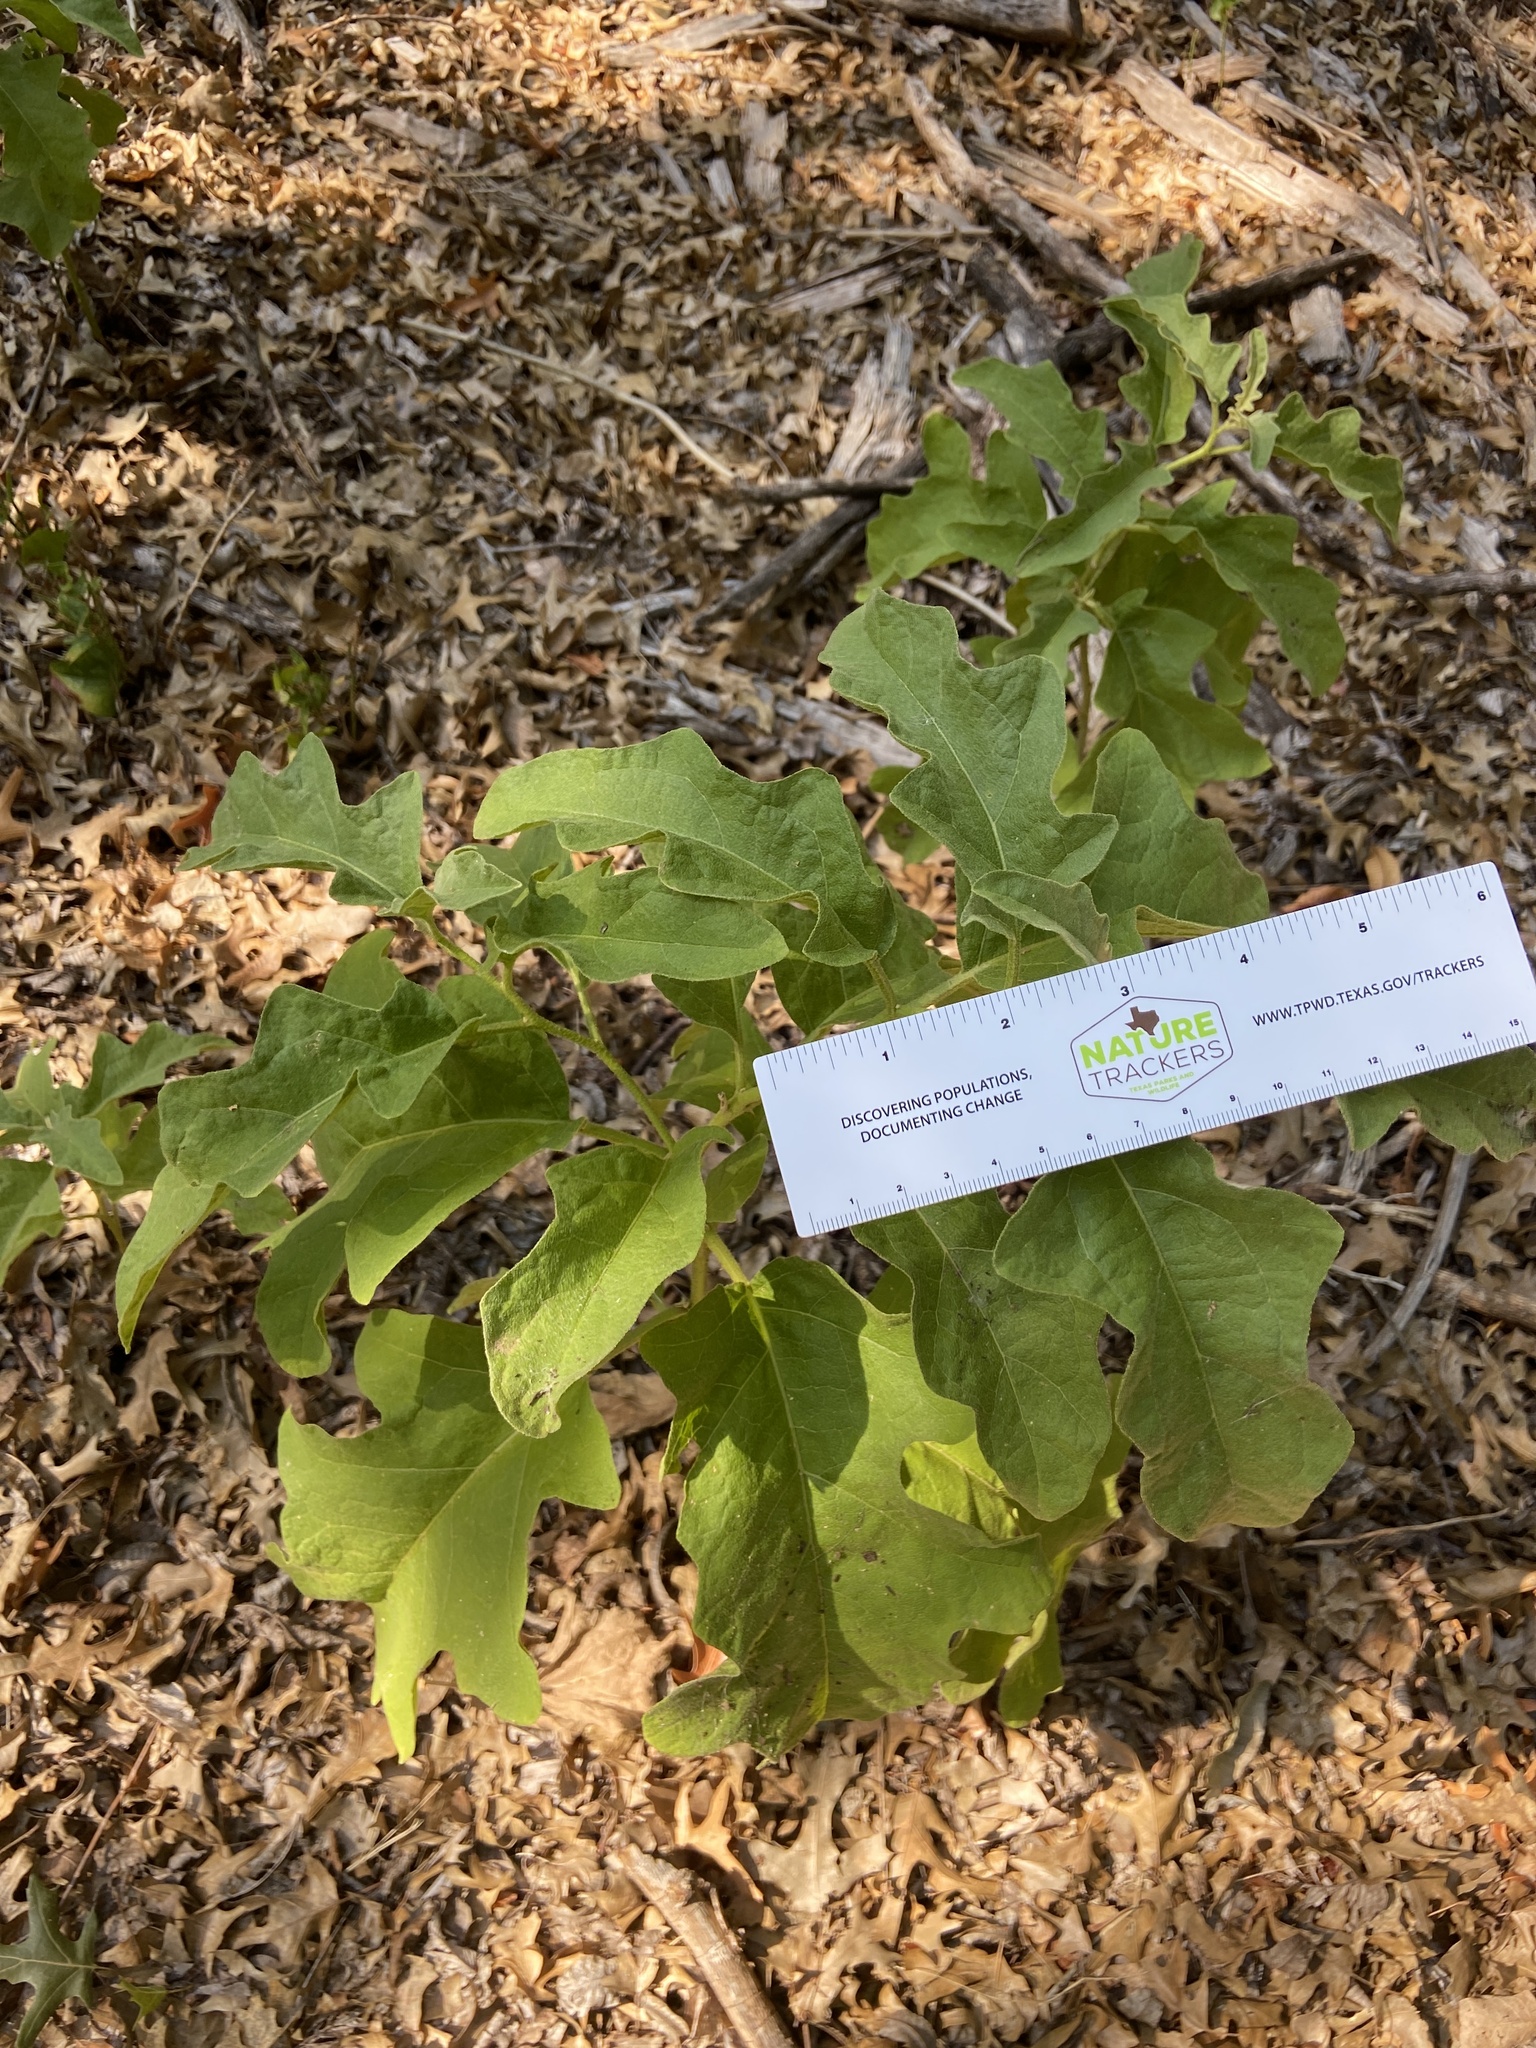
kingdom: Plantae
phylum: Tracheophyta
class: Magnoliopsida
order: Solanales
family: Solanaceae
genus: Solanum
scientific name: Solanum dimidiatum
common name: Carolina horse-nettle
